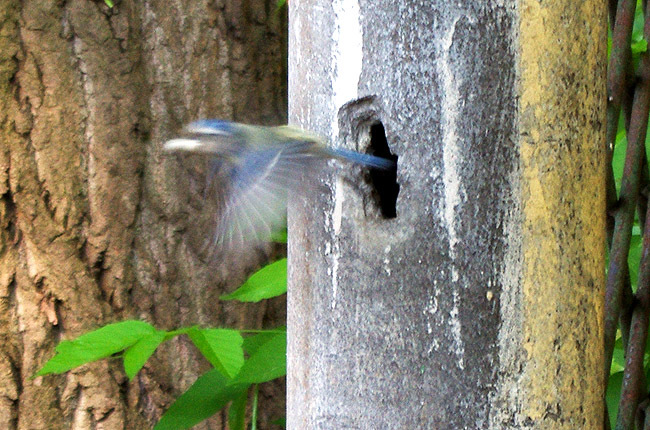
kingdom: Animalia
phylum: Chordata
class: Aves
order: Passeriformes
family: Paridae
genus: Cyanistes
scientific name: Cyanistes caeruleus
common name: Eurasian blue tit
